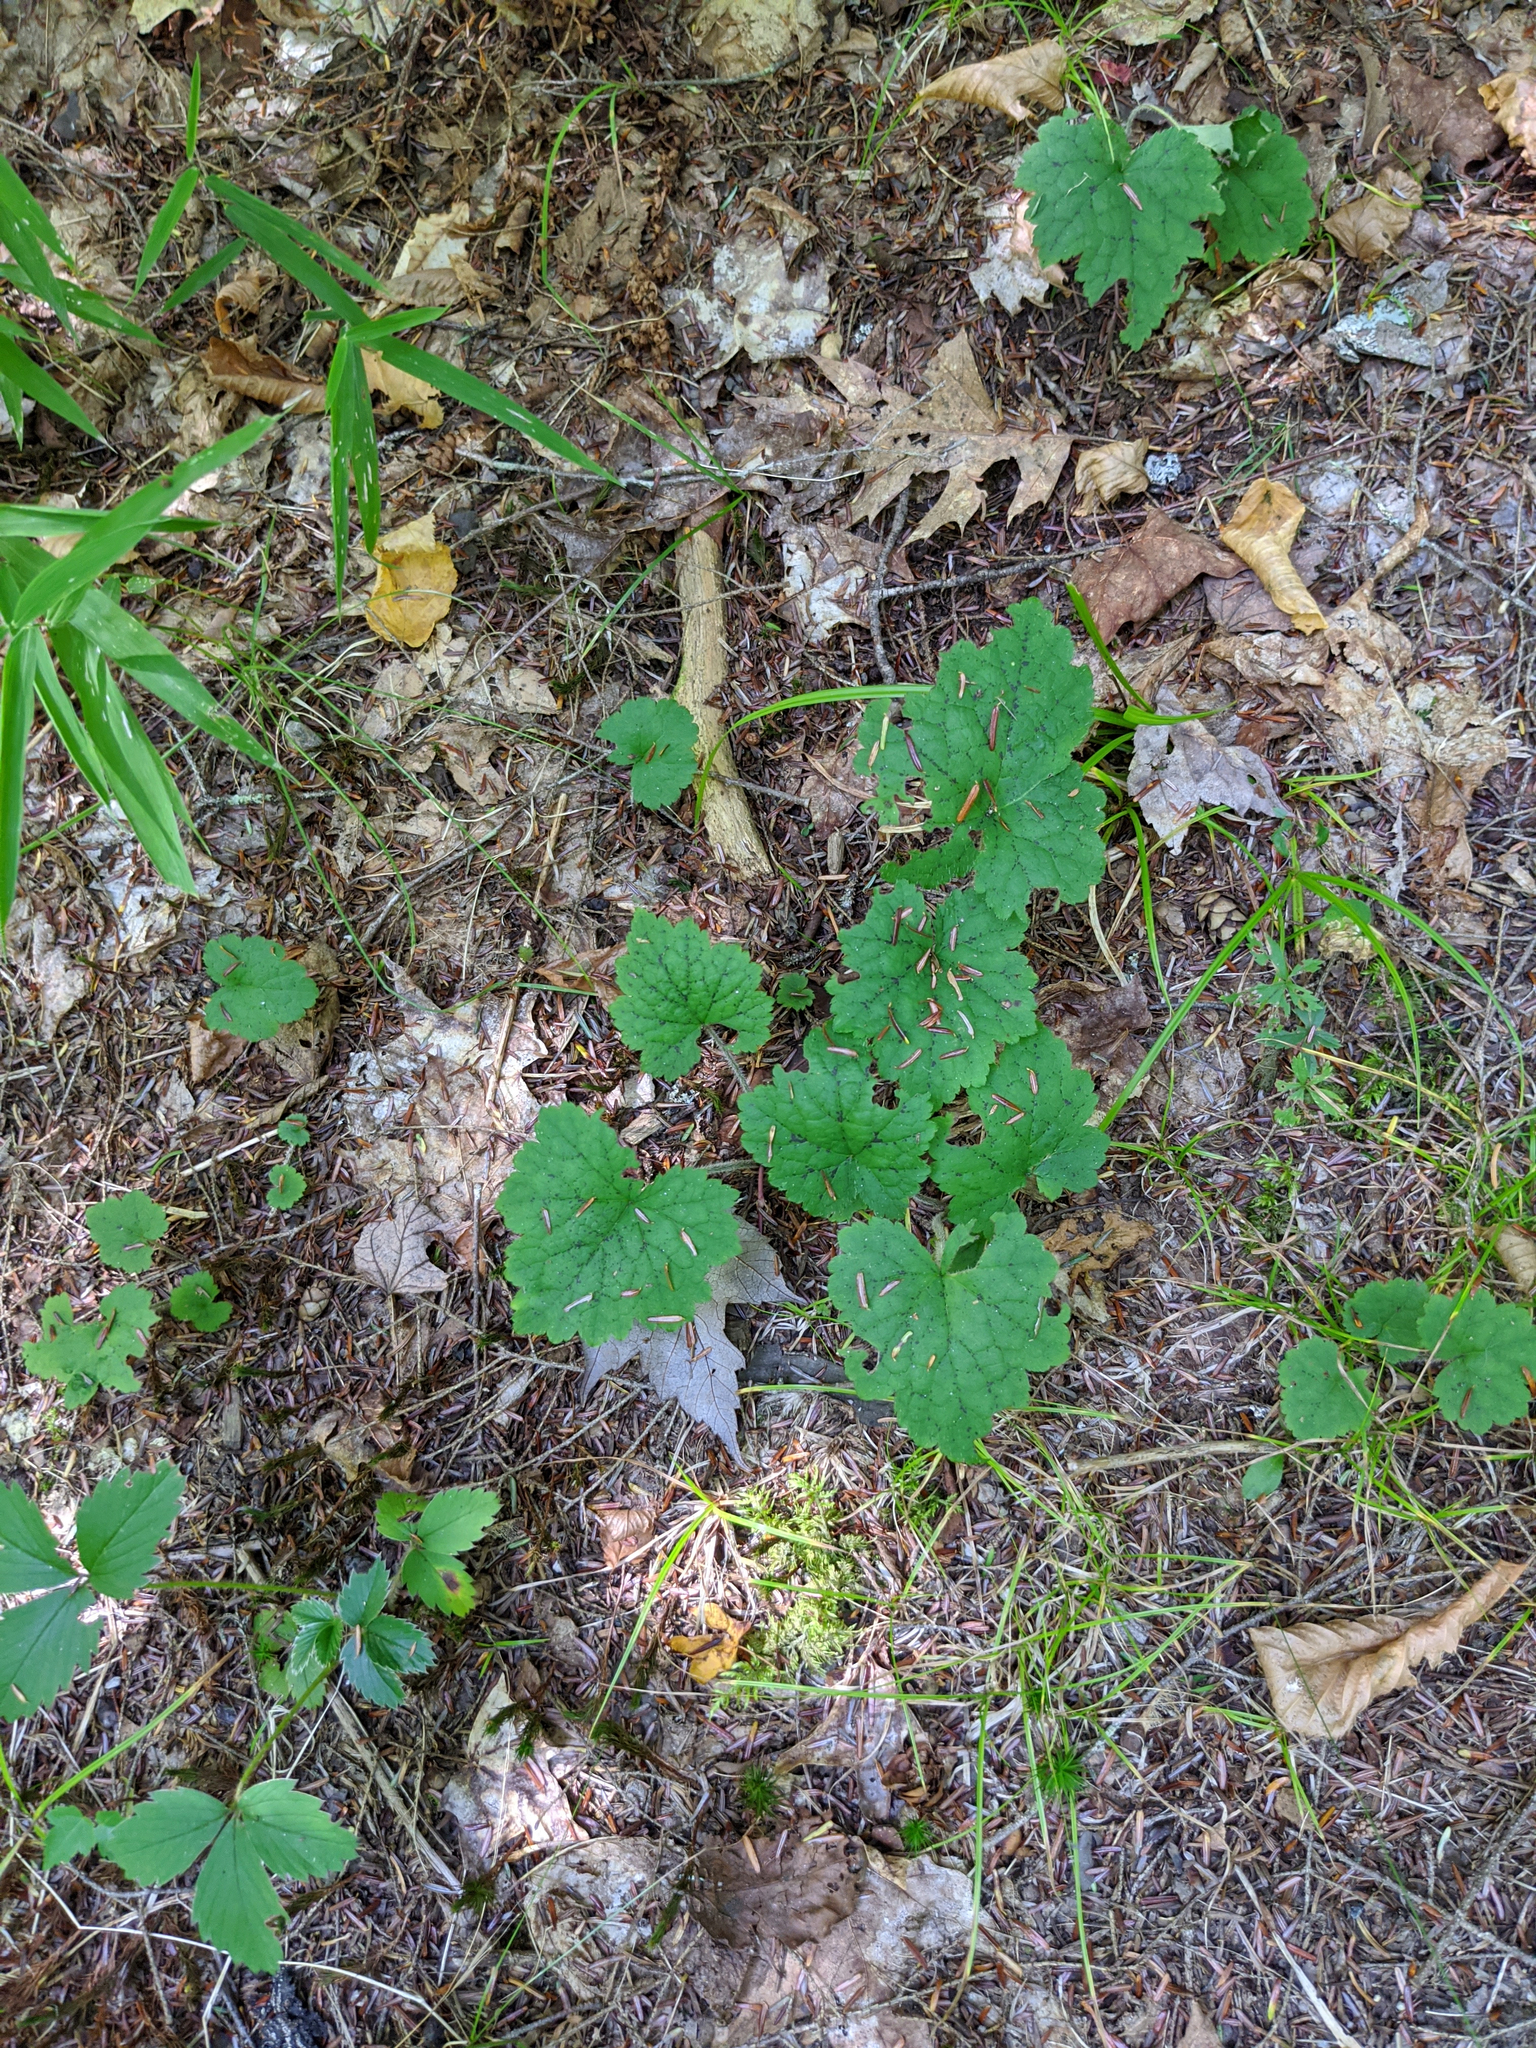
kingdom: Plantae
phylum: Tracheophyta
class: Magnoliopsida
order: Saxifragales
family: Saxifragaceae
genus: Tiarella
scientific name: Tiarella stolonifera
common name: Stoloniferous foamflower
